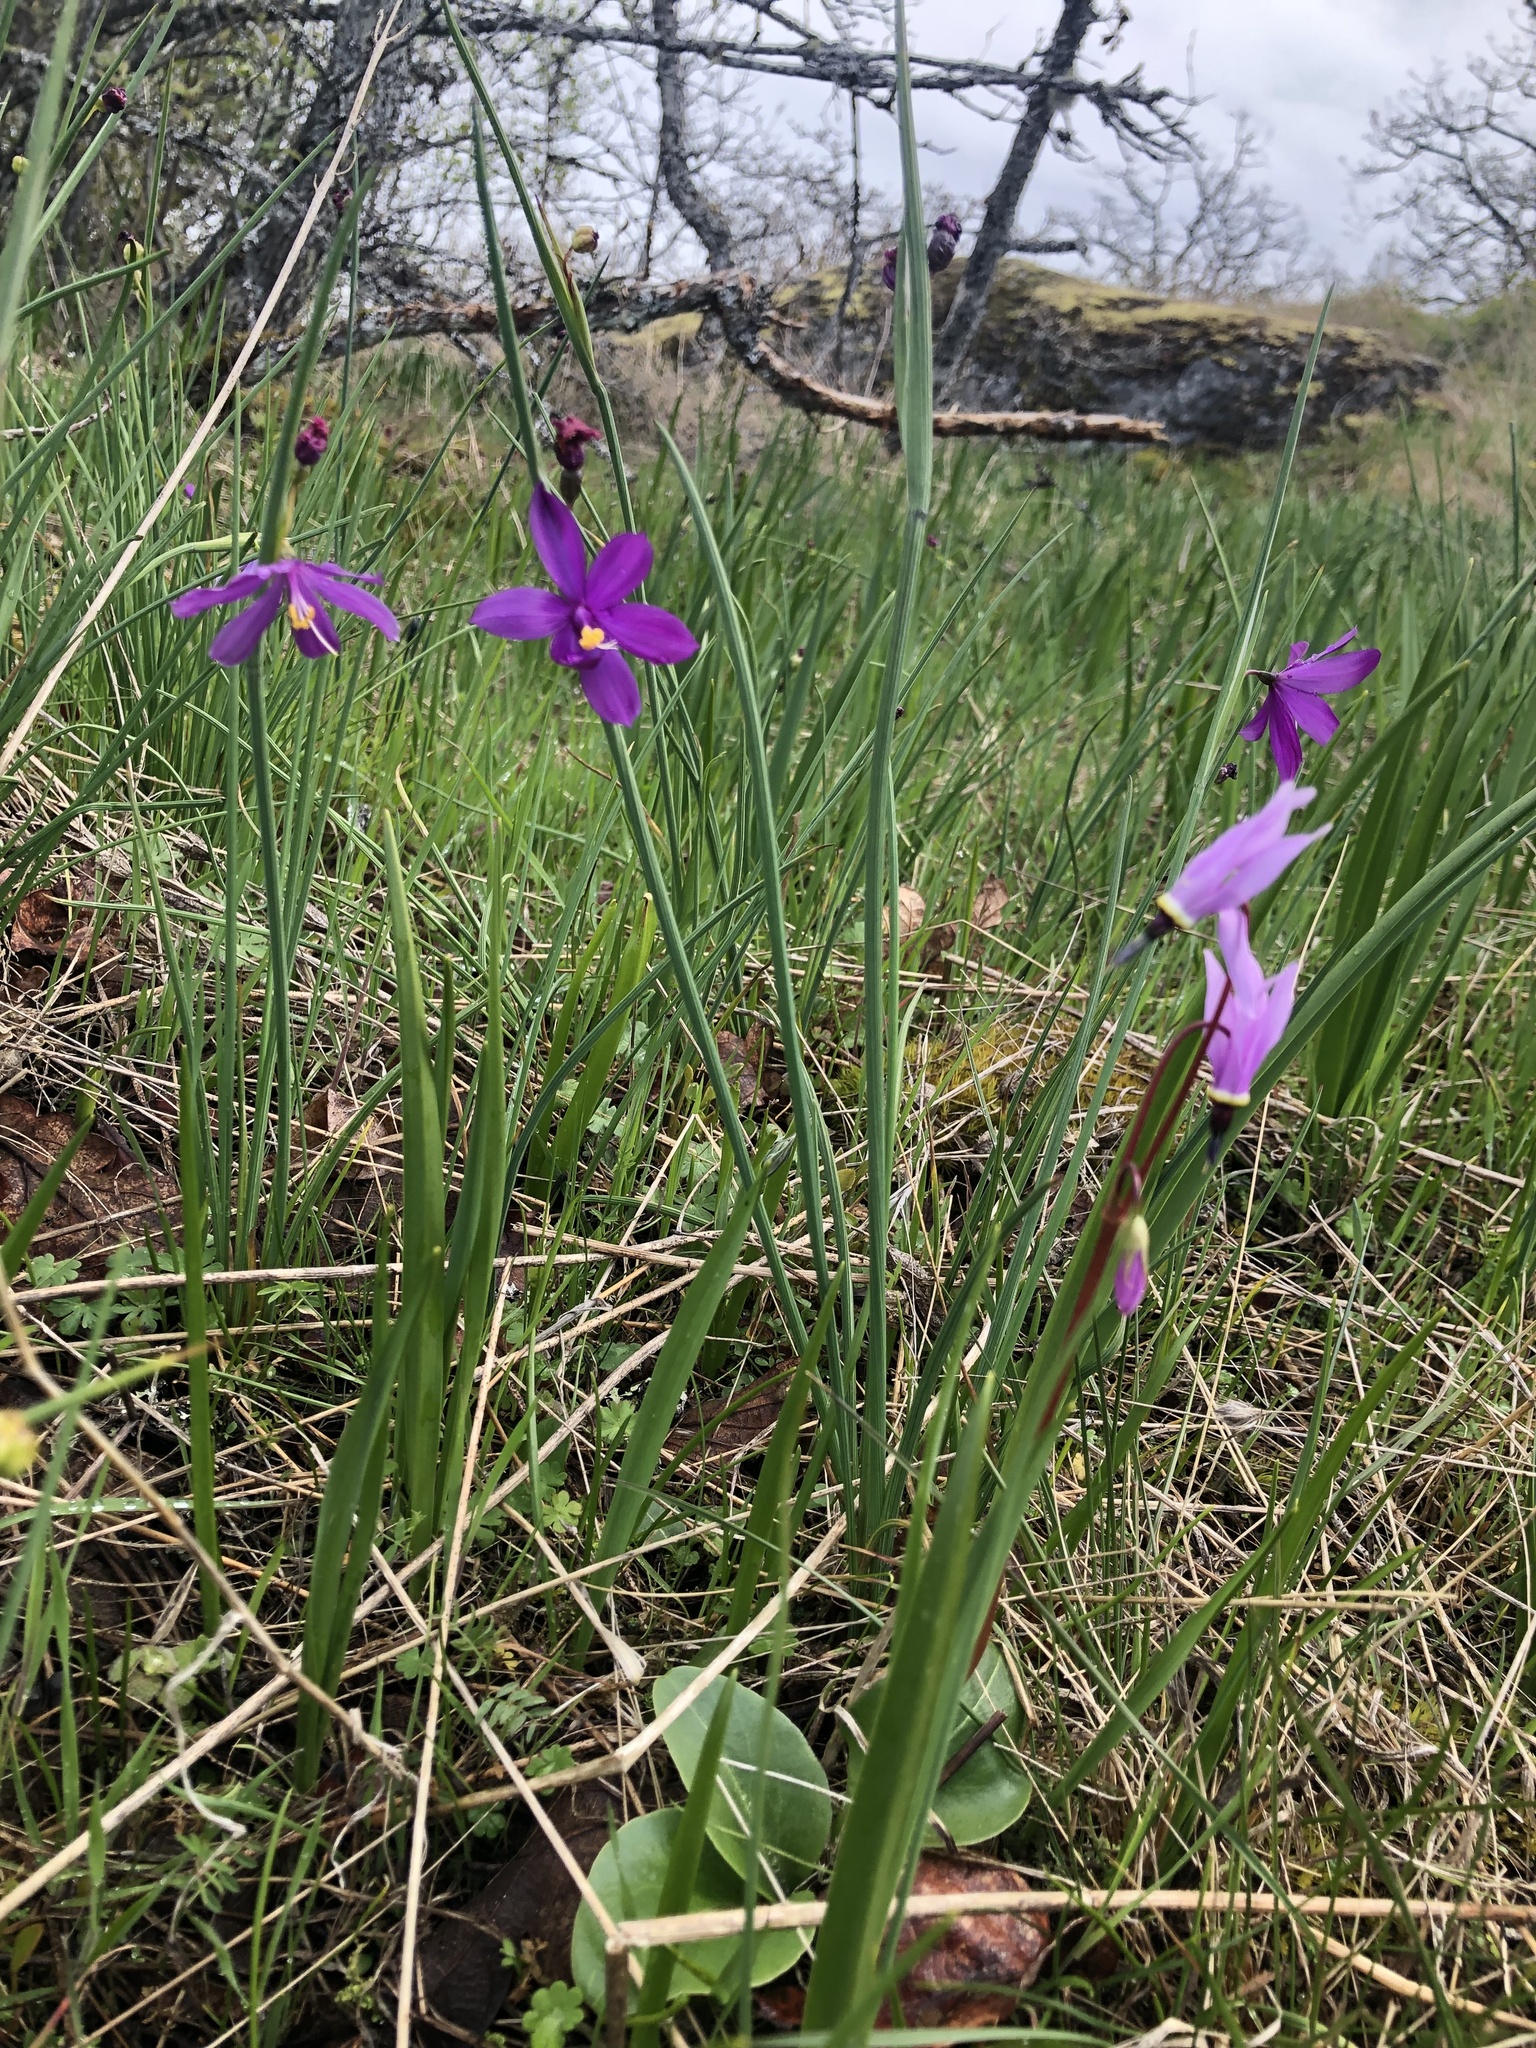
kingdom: Plantae
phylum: Tracheophyta
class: Liliopsida
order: Asparagales
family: Iridaceae
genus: Olsynium
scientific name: Olsynium douglasii
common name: Douglas' grasswidow
